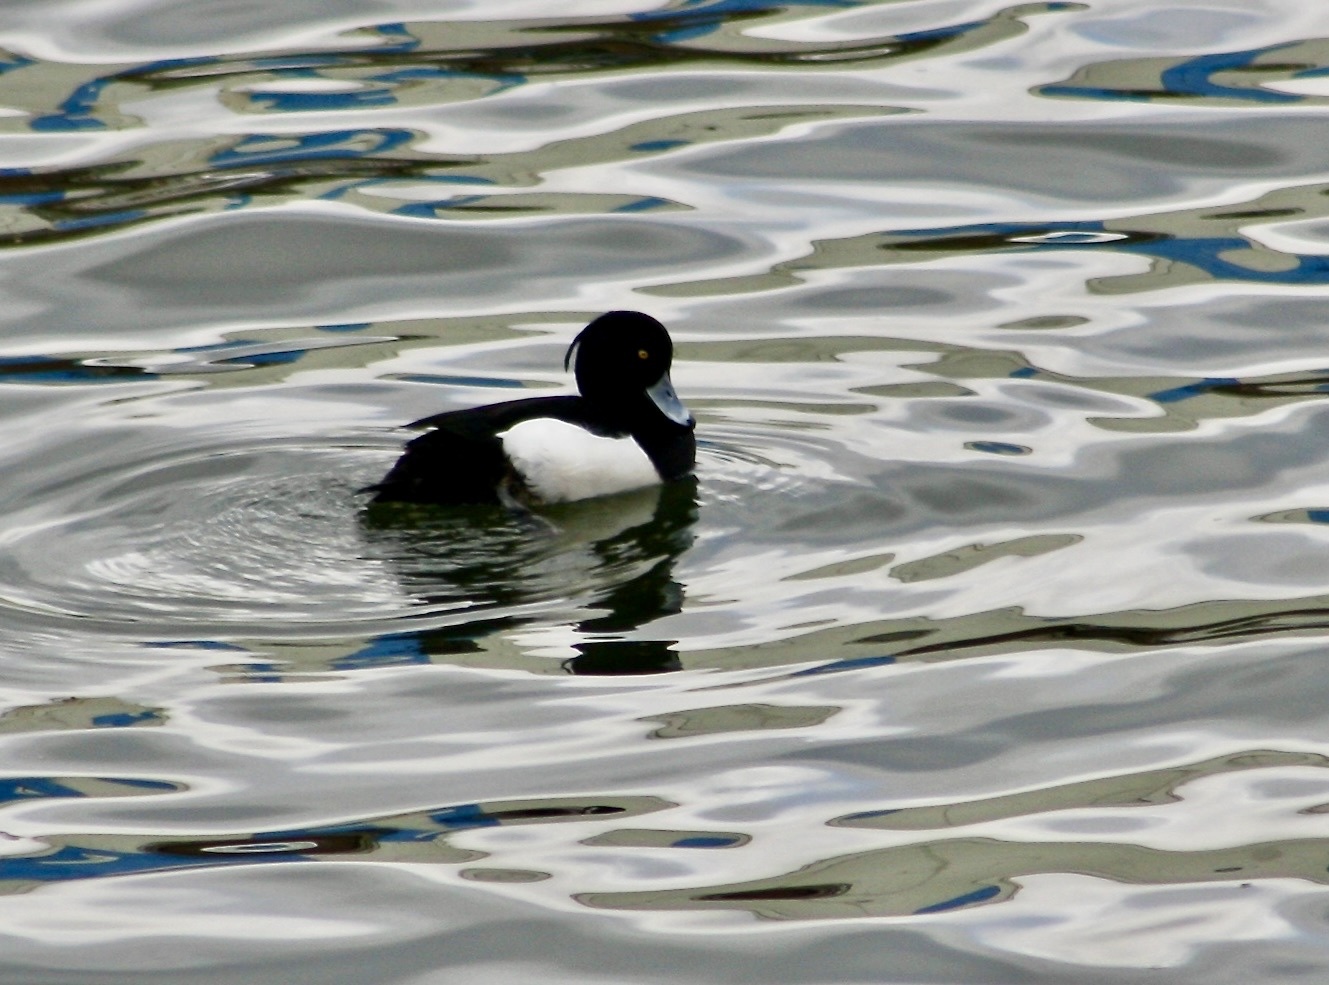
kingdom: Animalia
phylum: Chordata
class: Aves
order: Anseriformes
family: Anatidae
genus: Aythya
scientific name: Aythya fuligula
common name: Tufted duck
